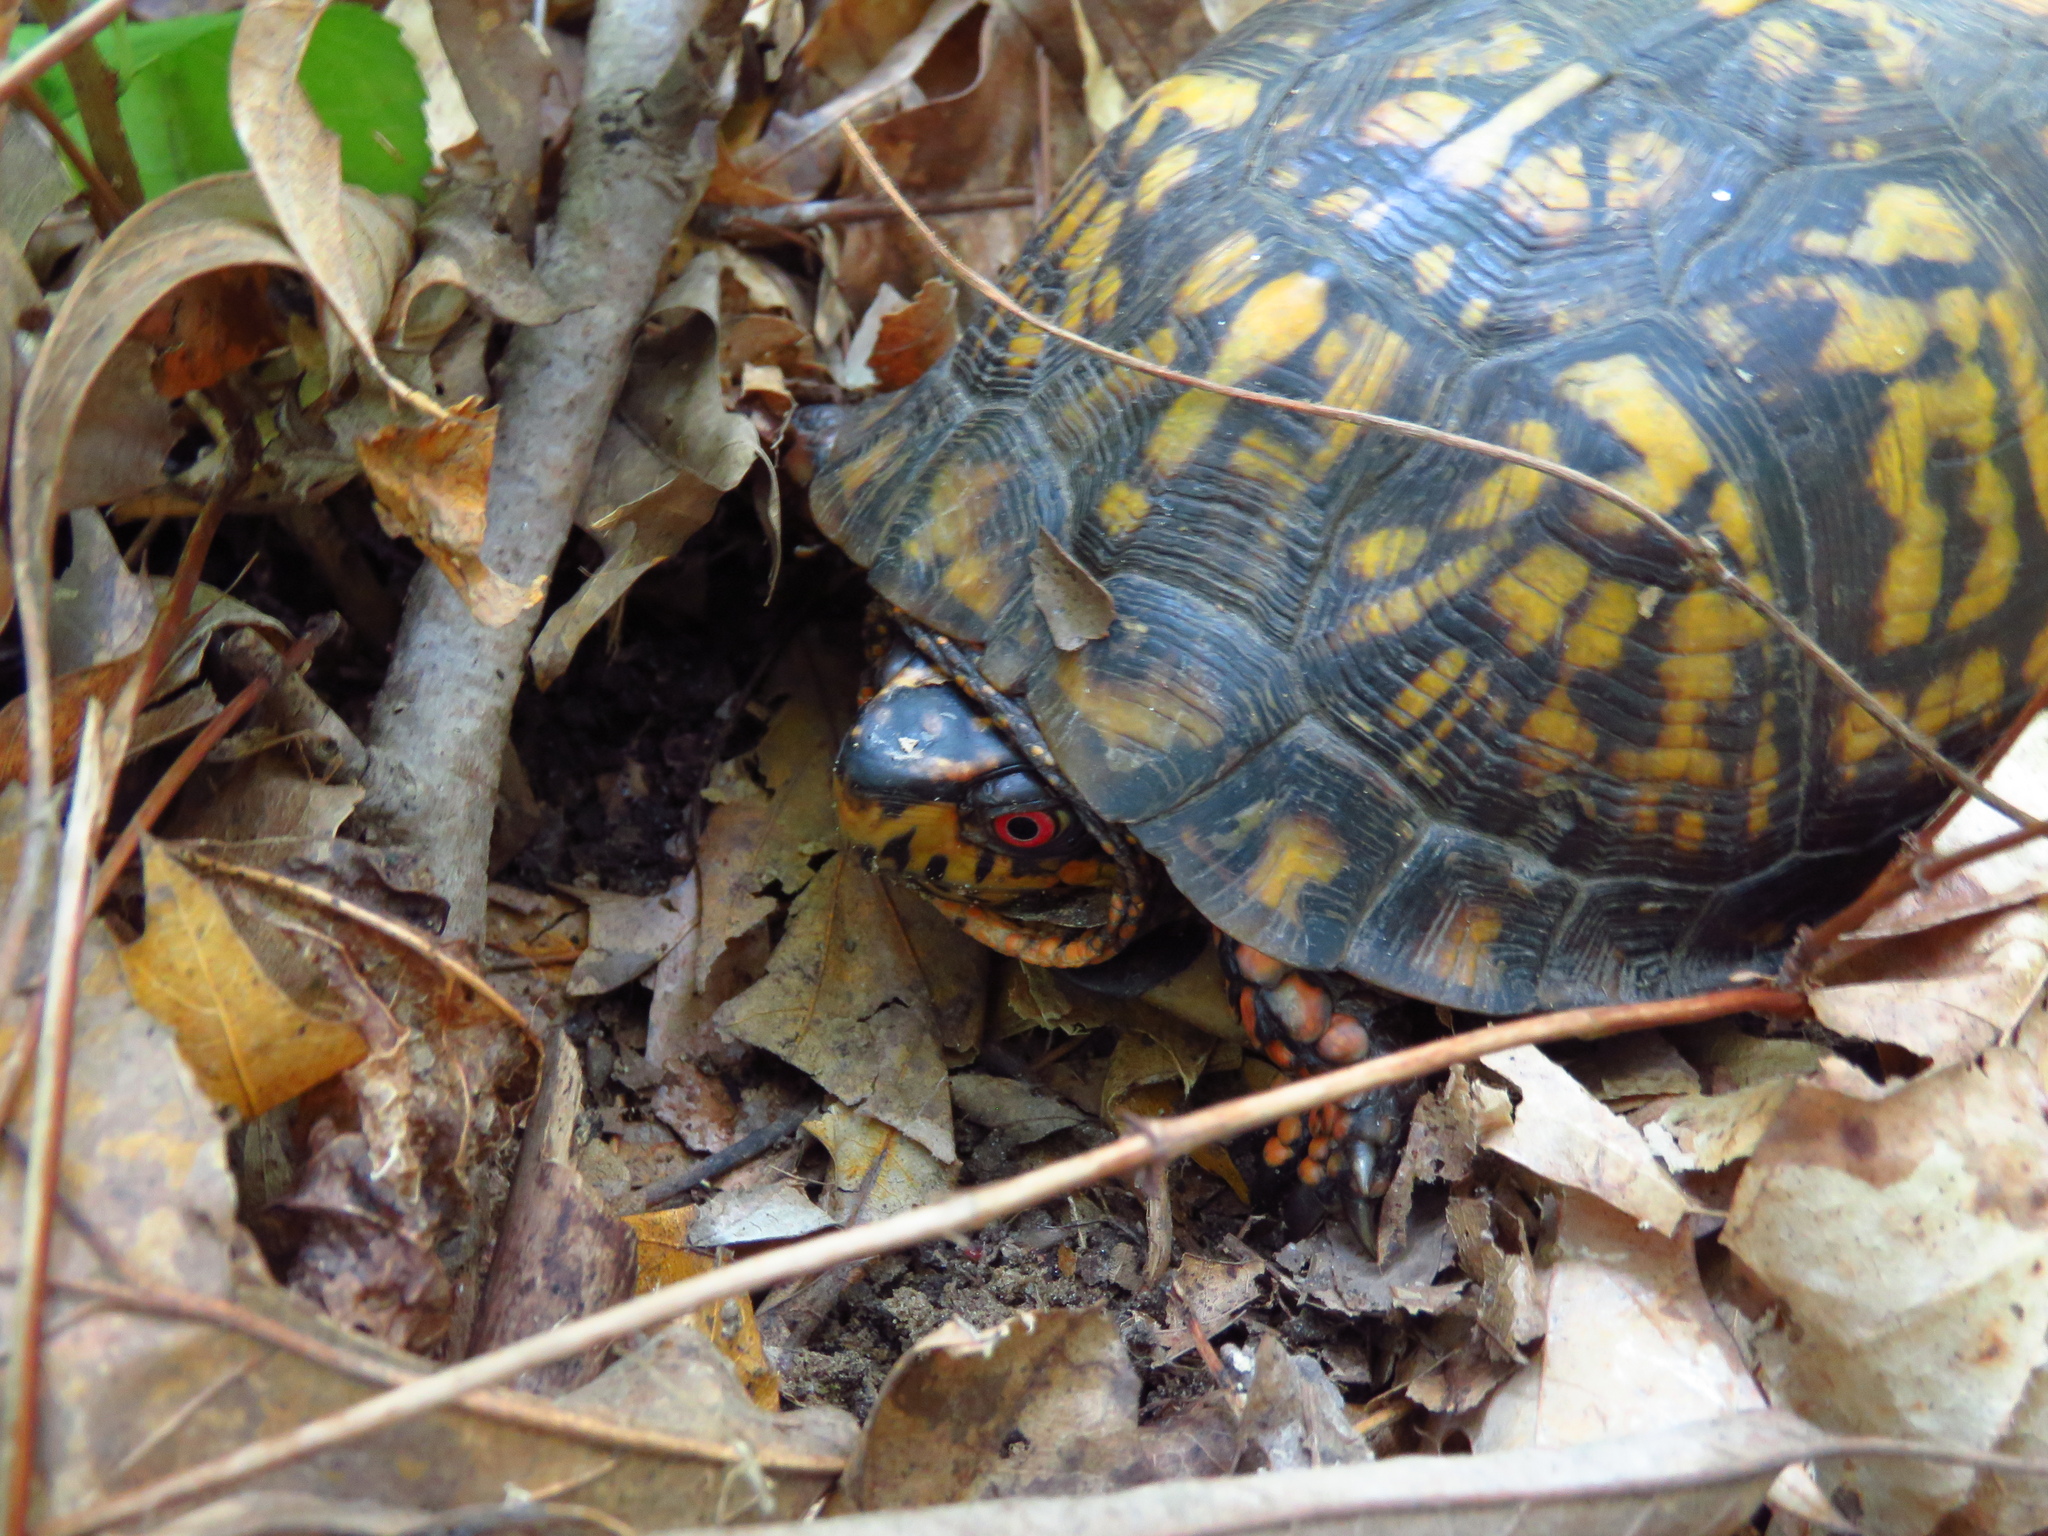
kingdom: Animalia
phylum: Chordata
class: Testudines
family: Emydidae
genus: Terrapene
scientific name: Terrapene carolina
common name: Common box turtle
